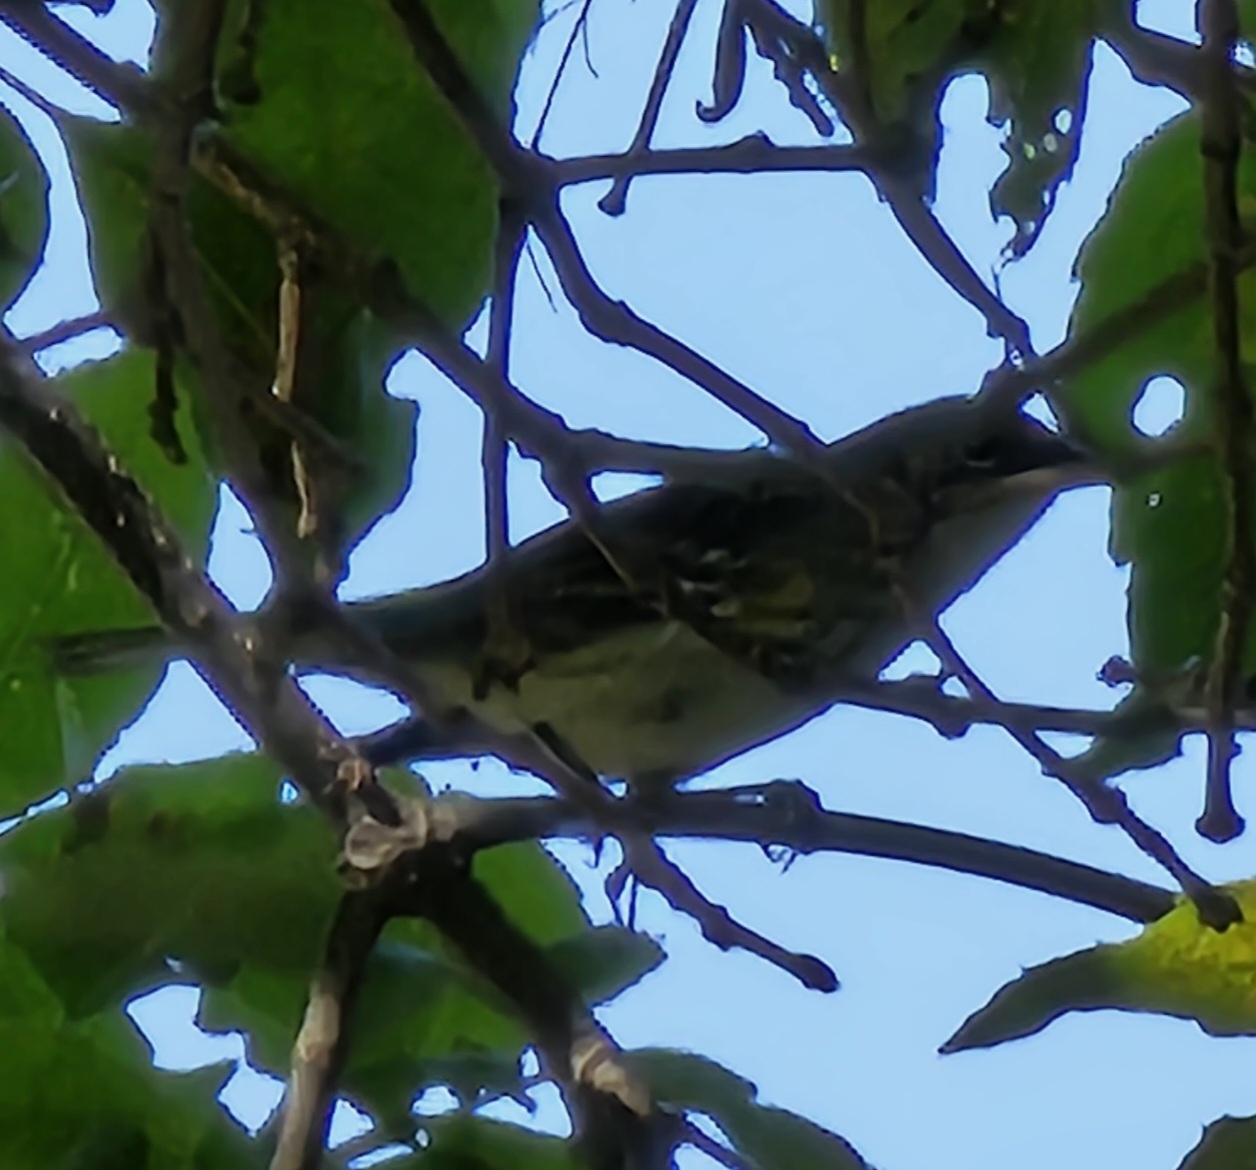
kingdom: Animalia
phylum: Chordata
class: Aves
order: Passeriformes
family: Parulidae
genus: Setophaga
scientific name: Setophaga coronata
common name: Myrtle warbler
